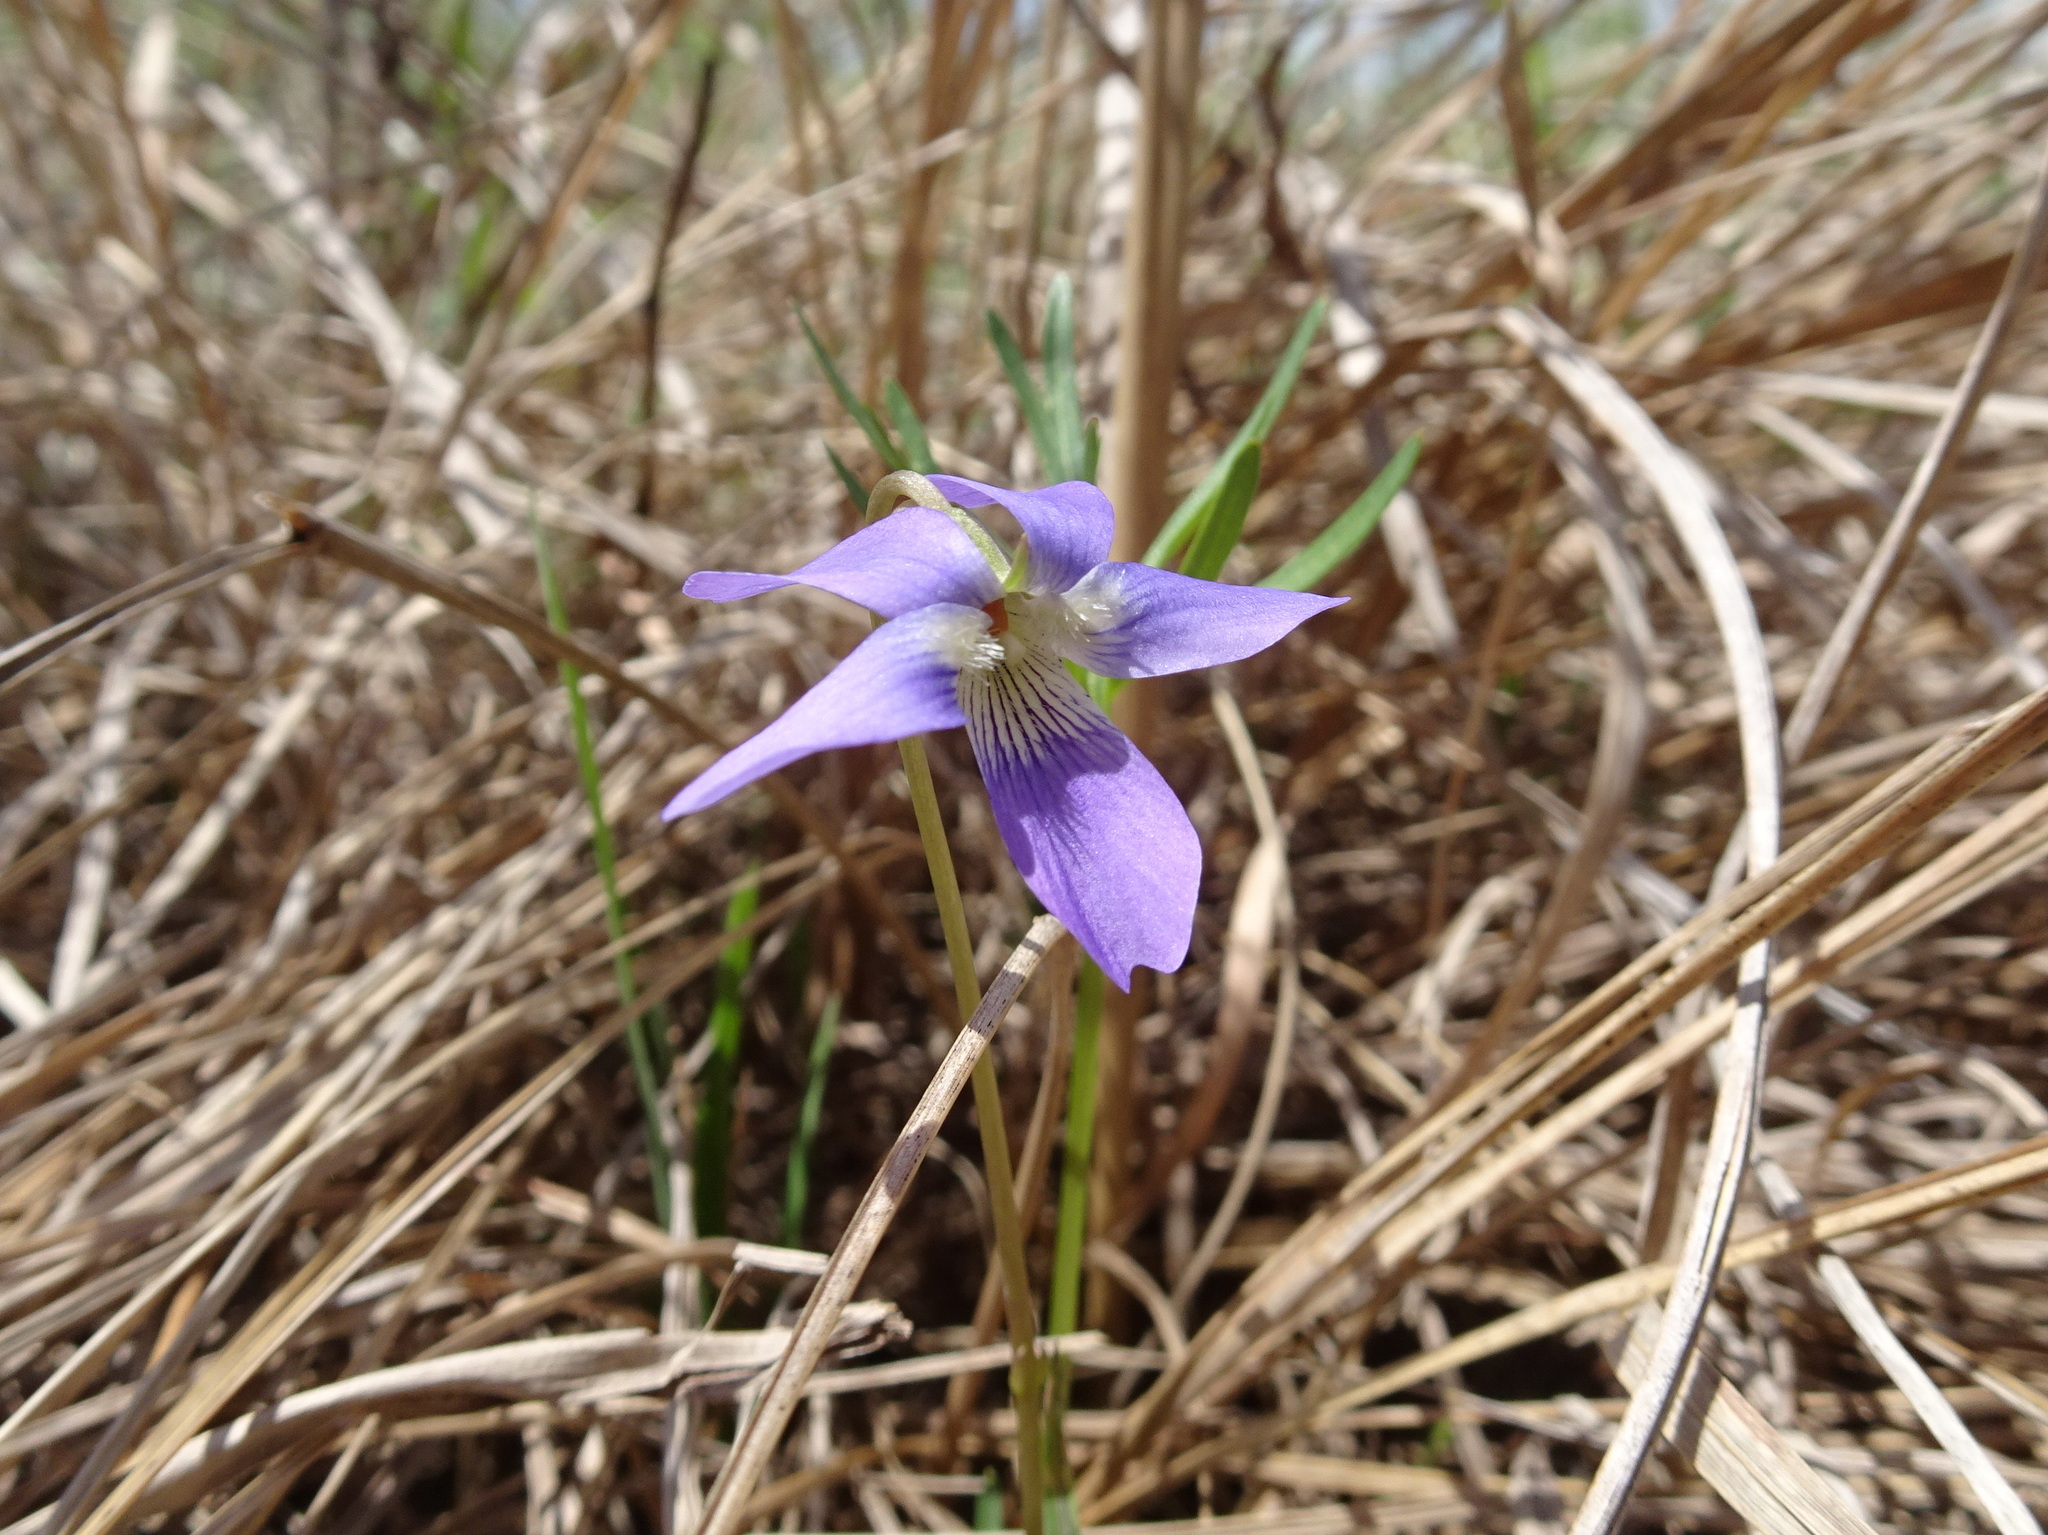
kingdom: Plantae
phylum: Tracheophyta
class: Magnoliopsida
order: Malpighiales
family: Violaceae
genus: Viola
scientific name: Viola pedatifida
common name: Prairie violet
